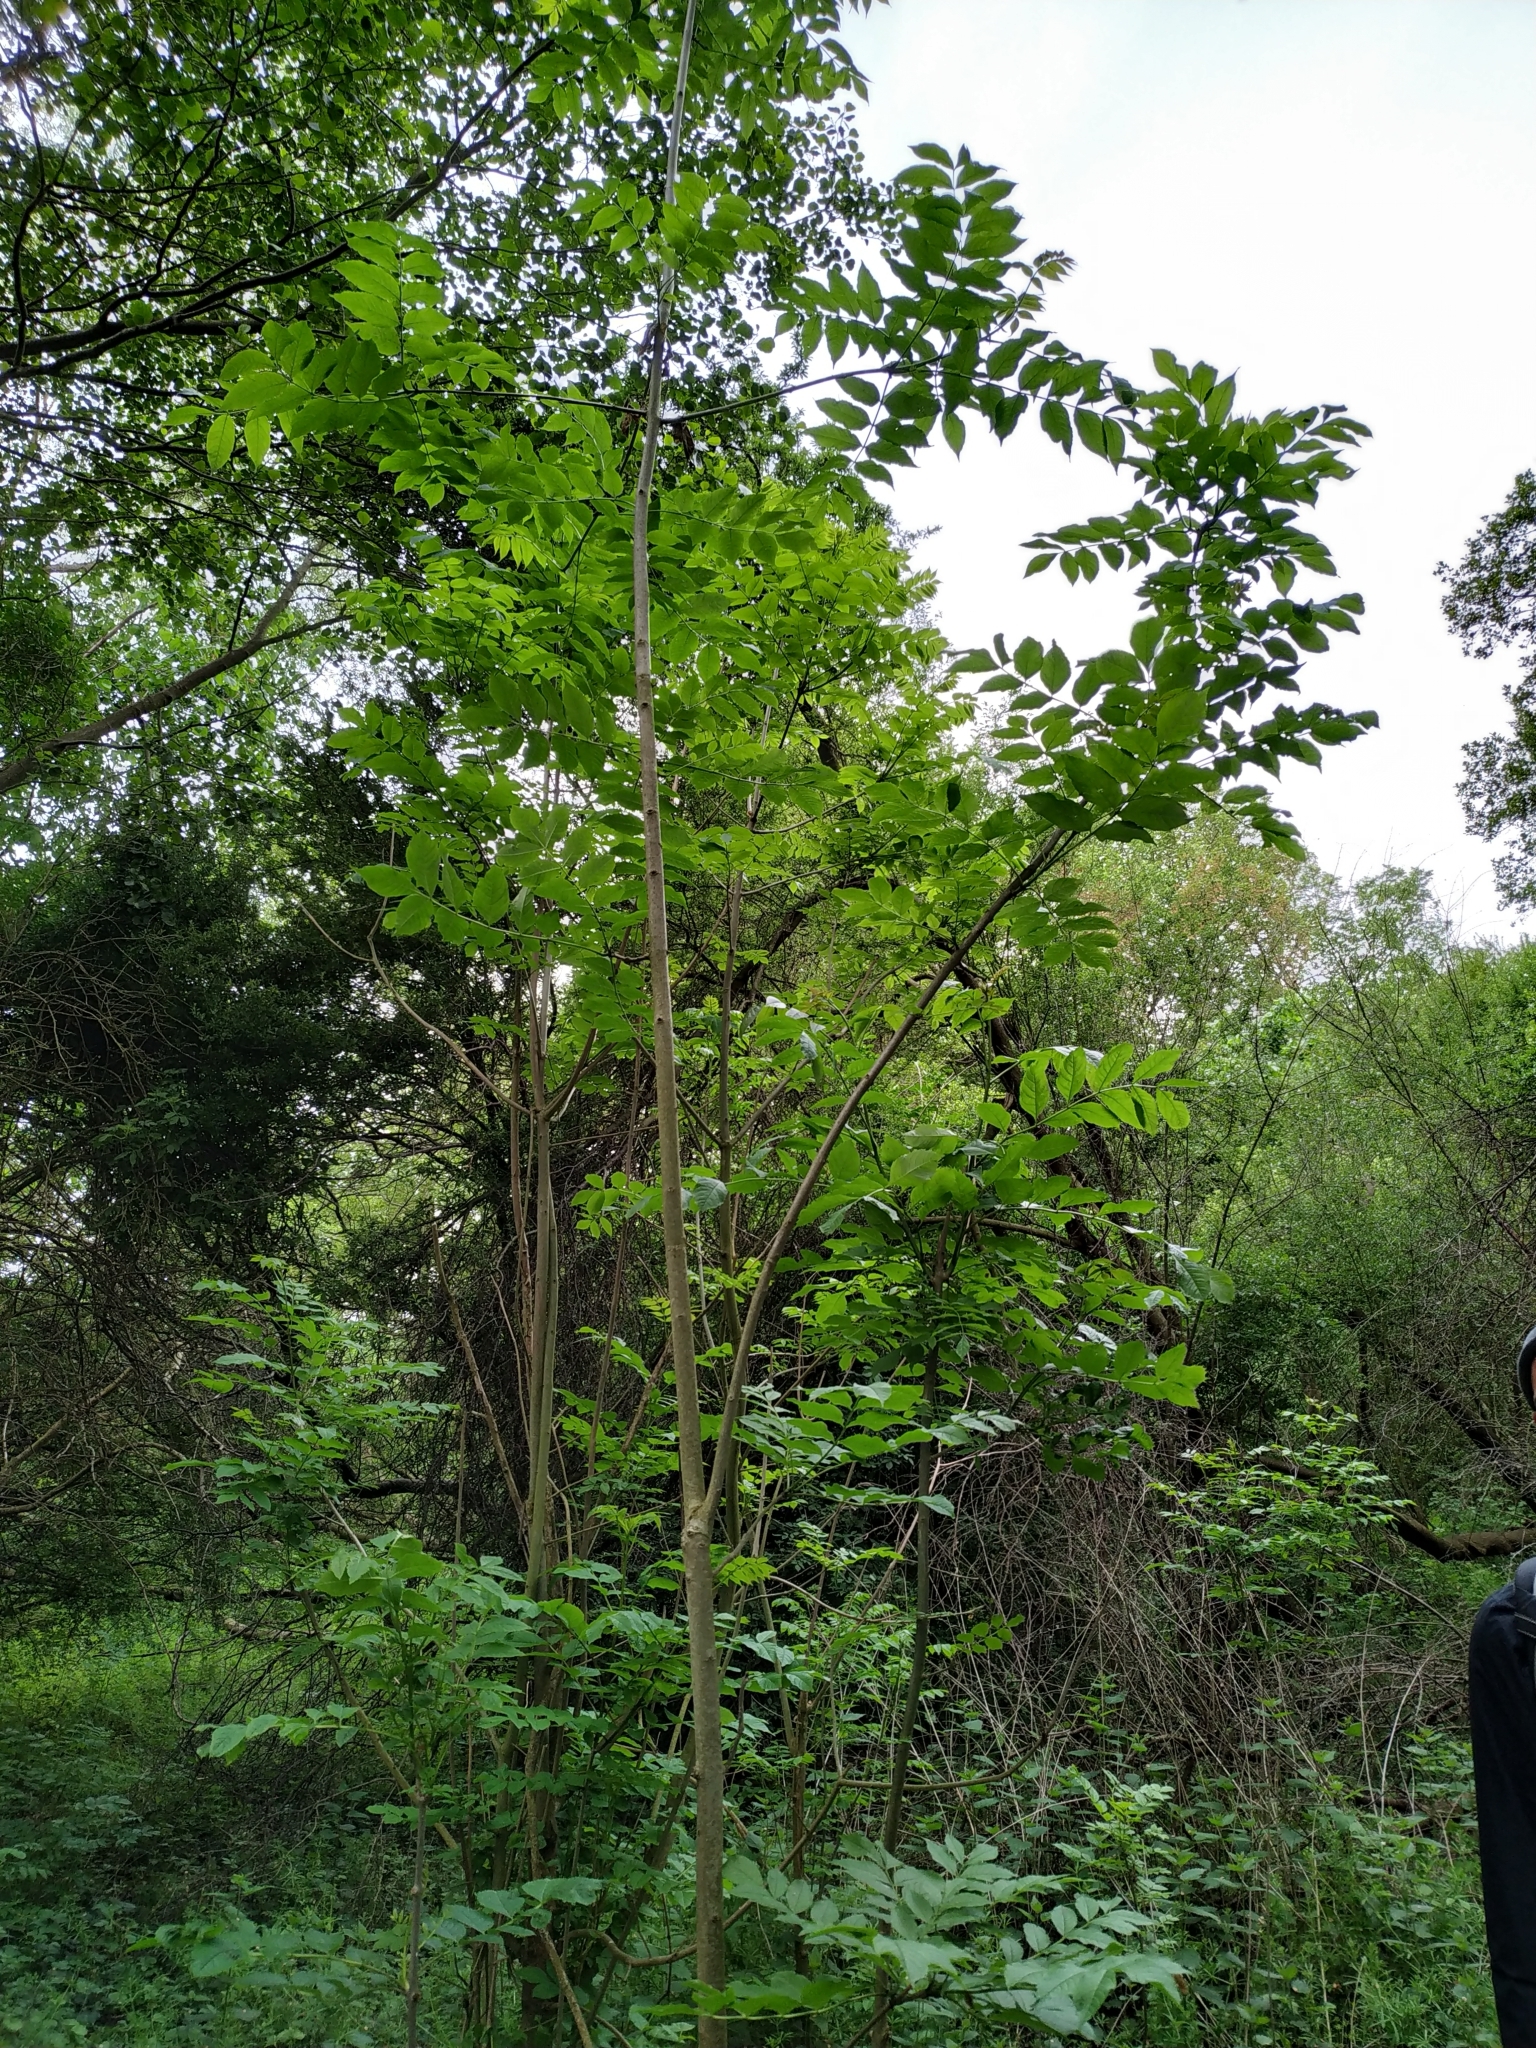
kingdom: Plantae
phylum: Tracheophyta
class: Magnoliopsida
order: Lamiales
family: Oleaceae
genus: Fraxinus
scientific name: Fraxinus excelsior
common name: European ash
